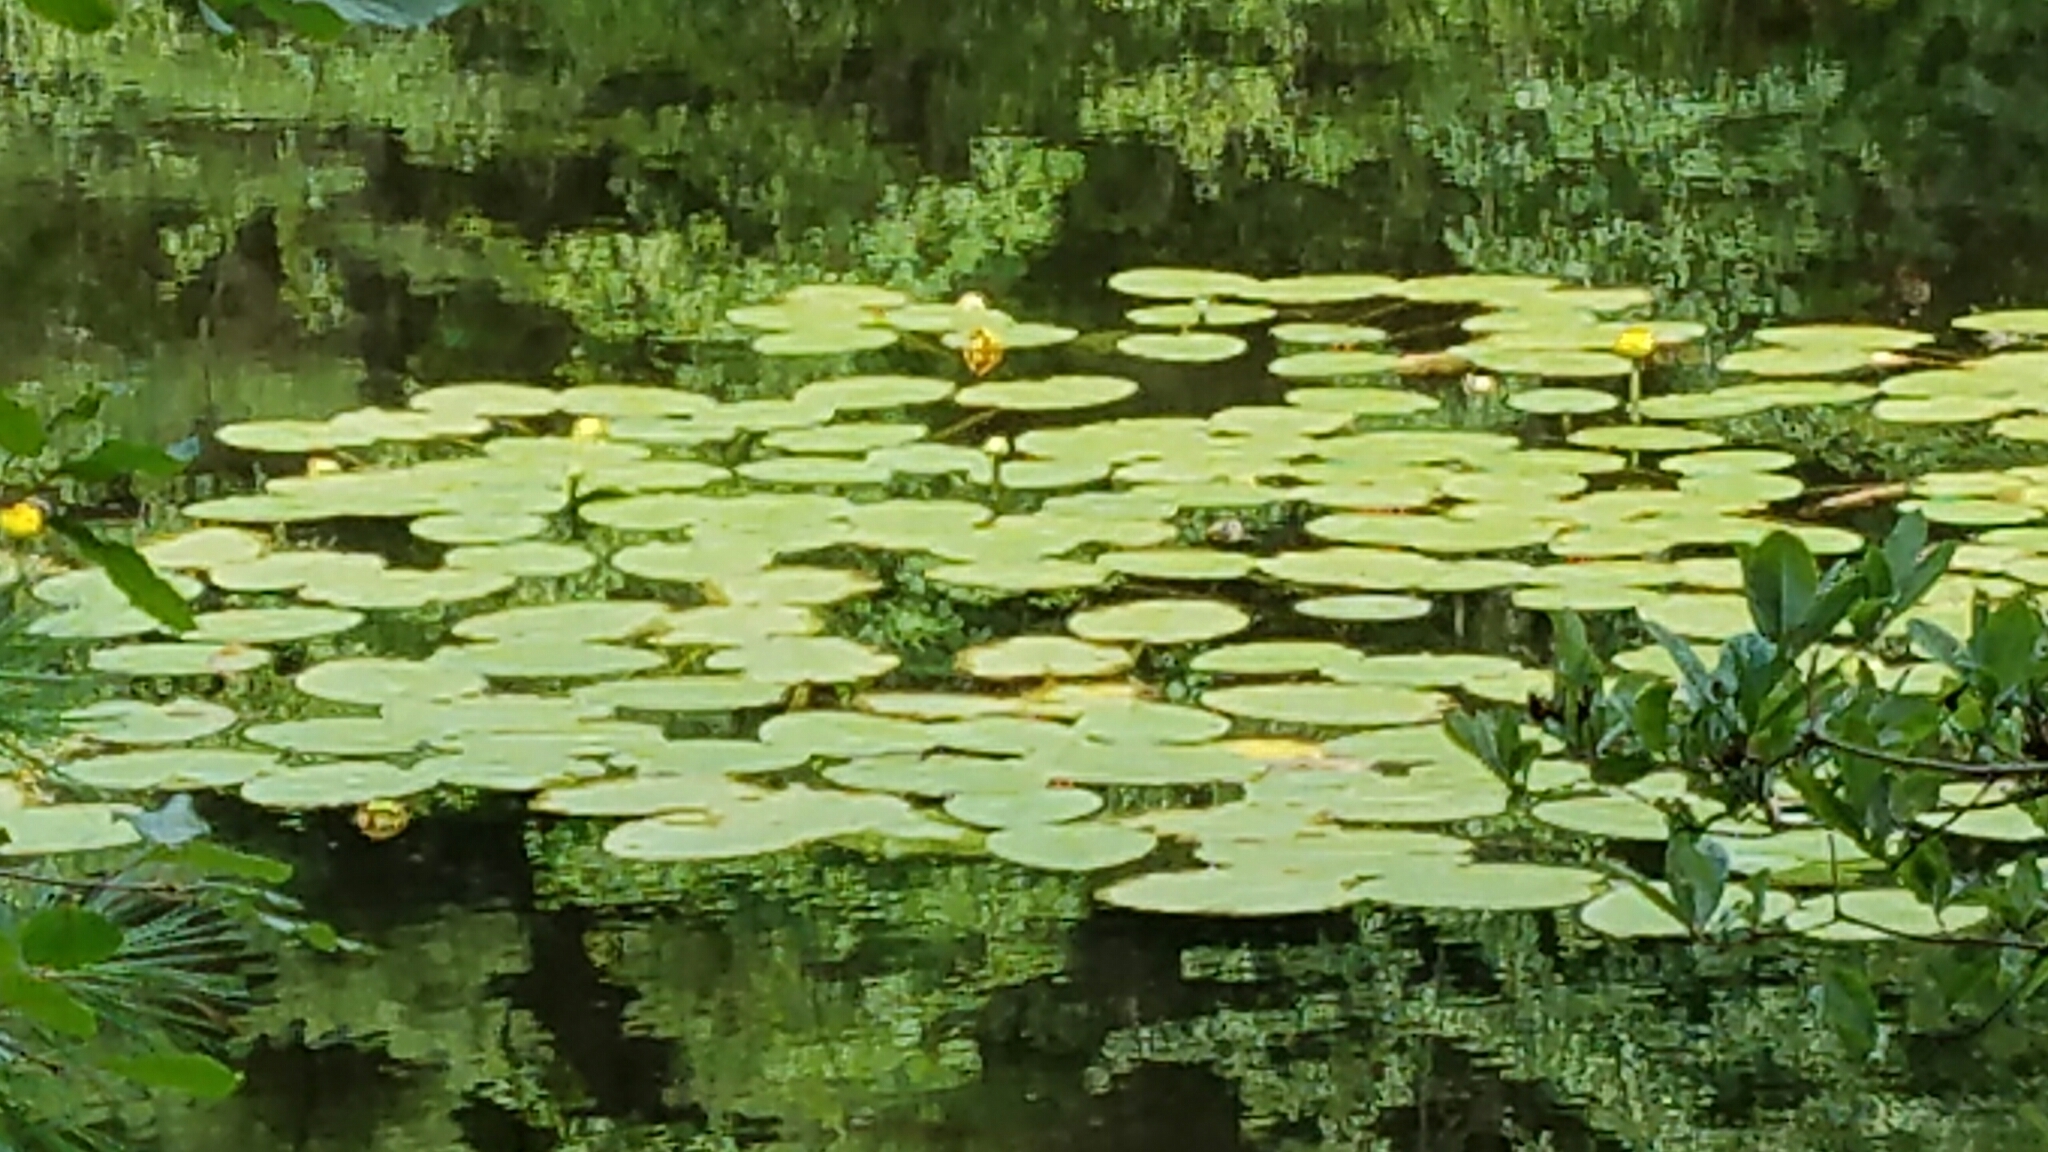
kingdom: Plantae
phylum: Tracheophyta
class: Magnoliopsida
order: Nymphaeales
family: Nymphaeaceae
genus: Nuphar
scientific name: Nuphar variegata
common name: Beaver-root
